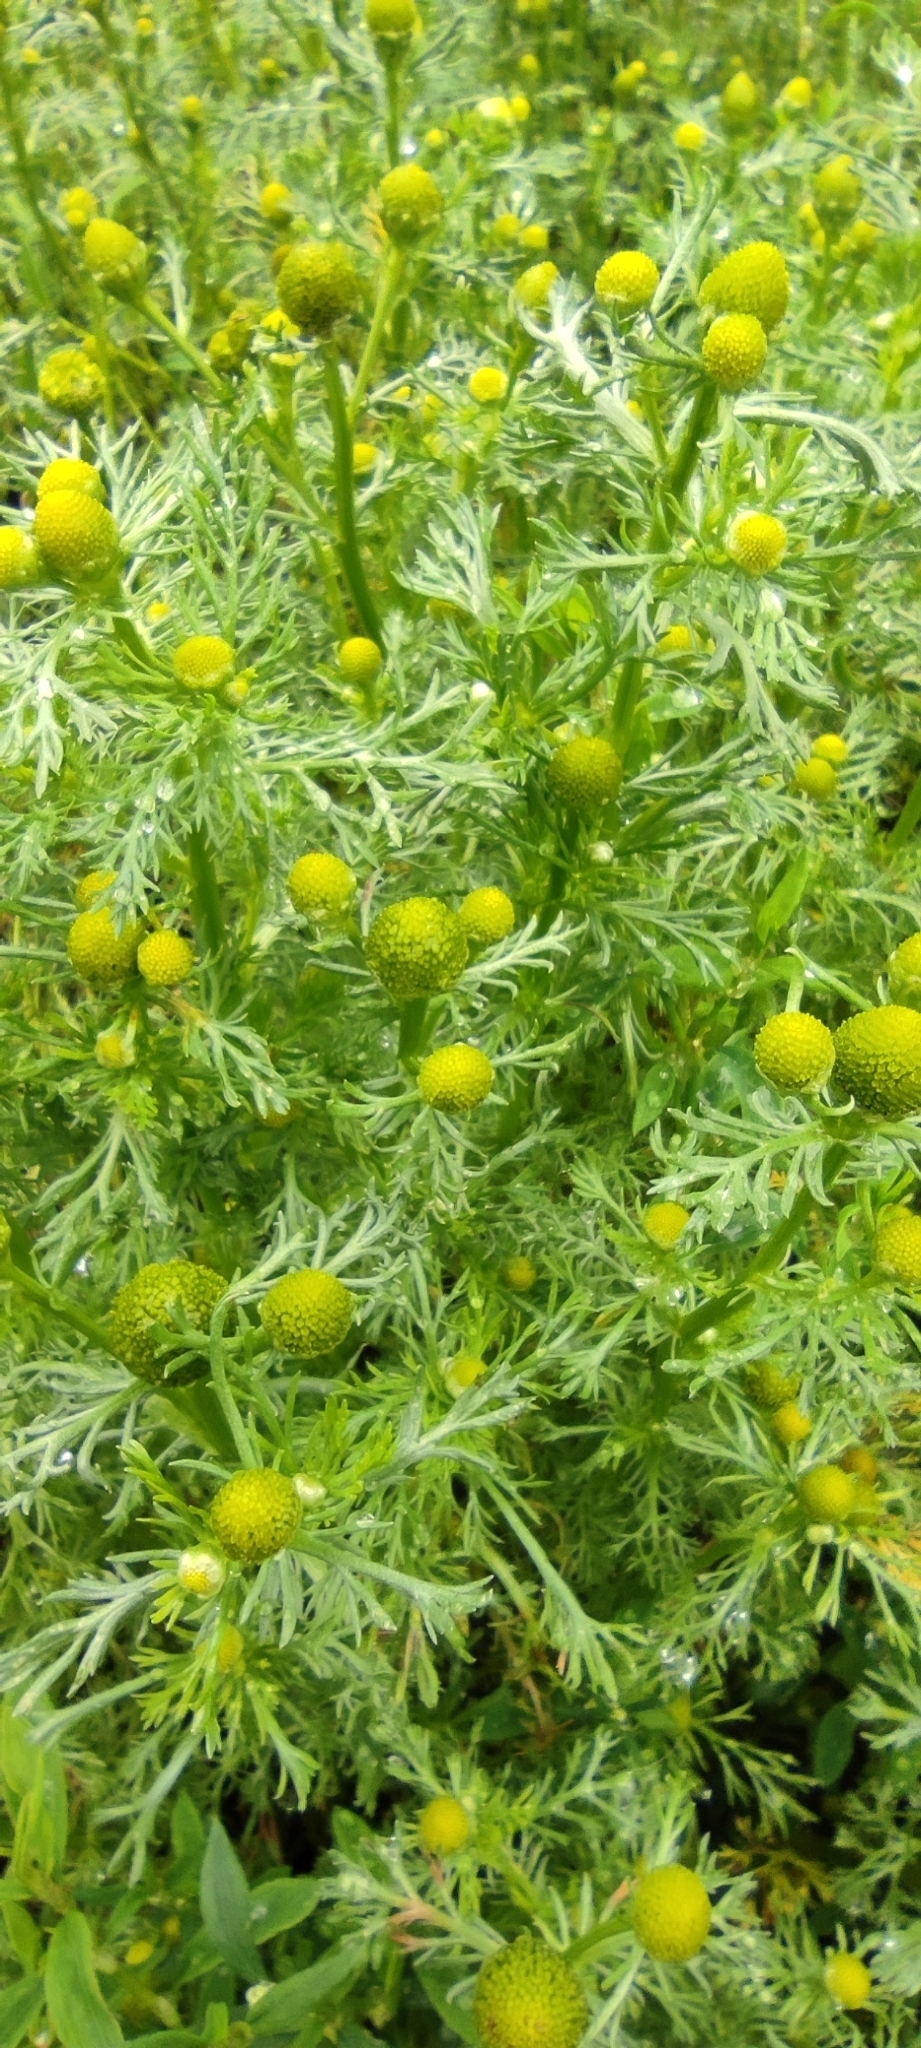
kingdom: Plantae
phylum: Tracheophyta
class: Magnoliopsida
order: Asterales
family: Asteraceae
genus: Matricaria
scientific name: Matricaria discoidea
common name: Disc mayweed
